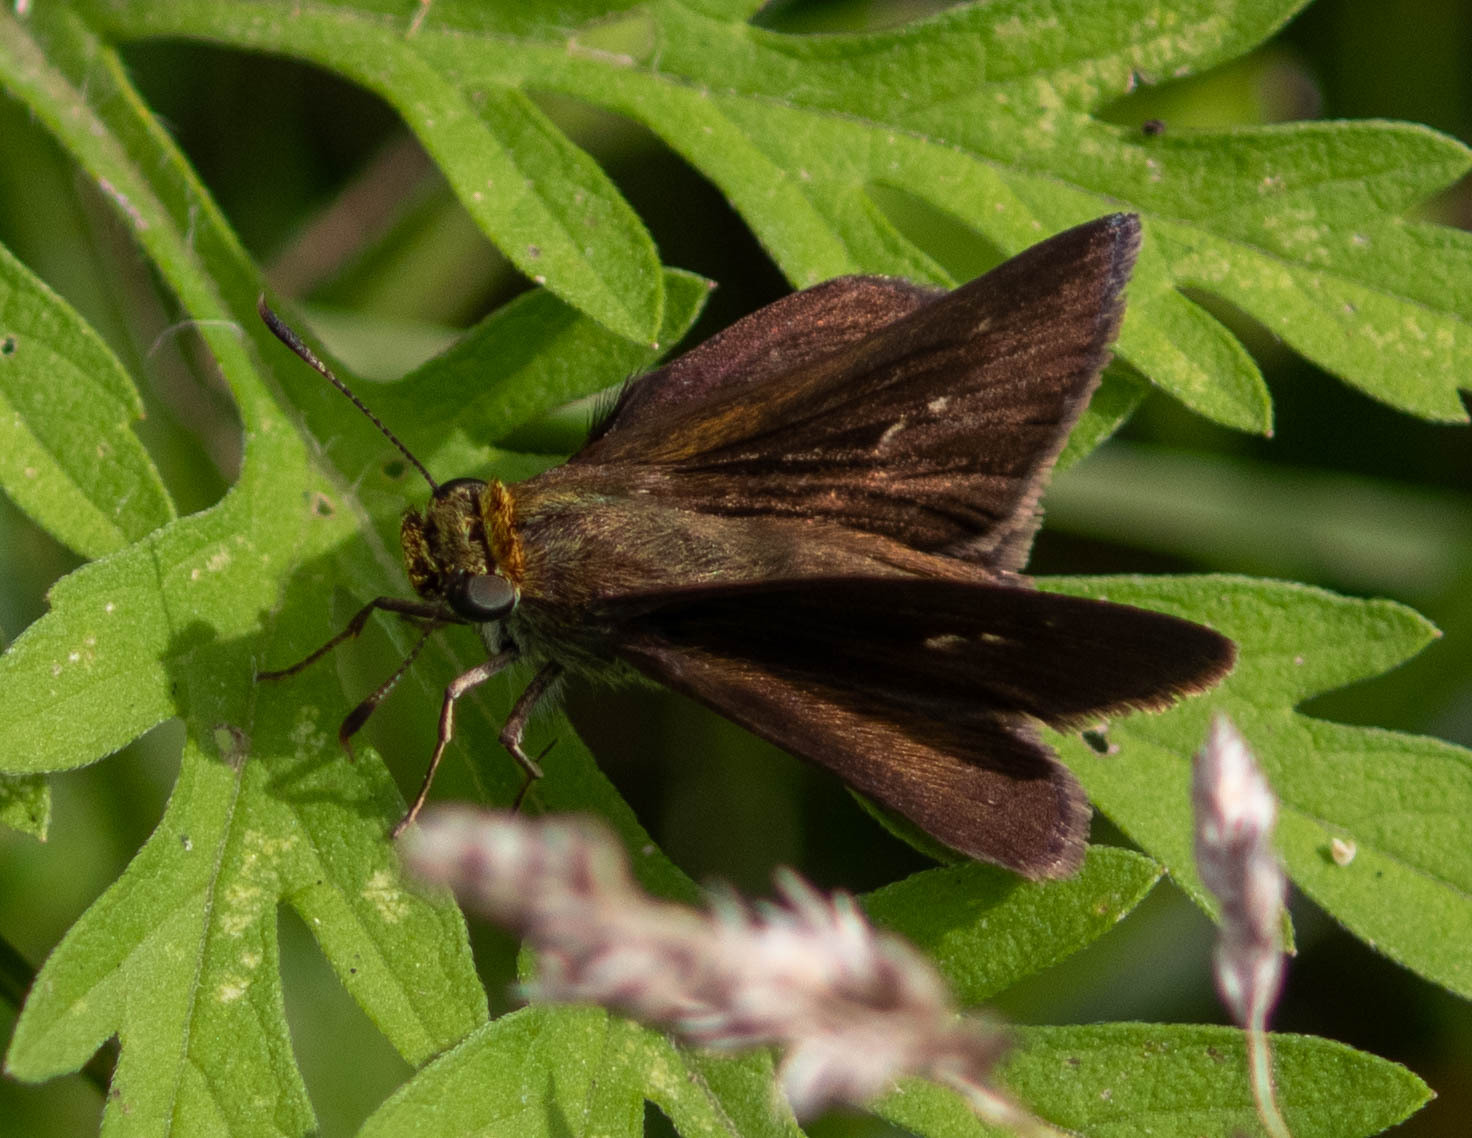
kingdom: Animalia
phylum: Arthropoda
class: Insecta
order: Lepidoptera
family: Hesperiidae
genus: Euphyes
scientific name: Euphyes vestris
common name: Dun skipper
